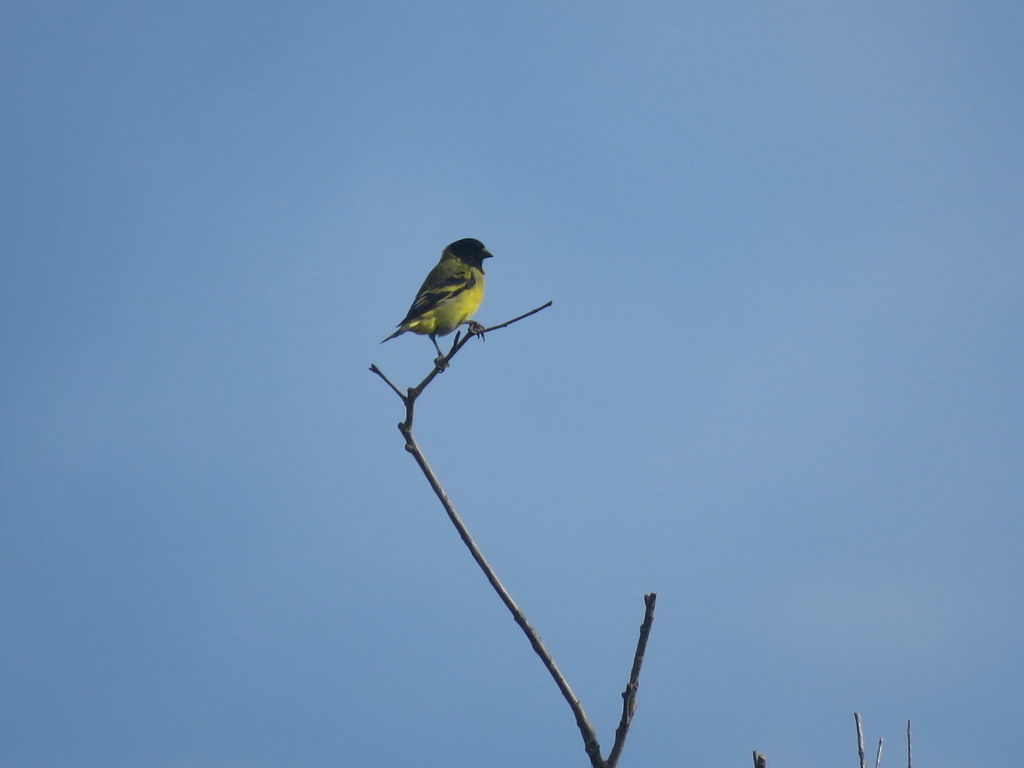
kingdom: Animalia
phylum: Chordata
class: Aves
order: Passeriformes
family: Fringillidae
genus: Spinus
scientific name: Spinus magellanicus
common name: Hooded siskin
